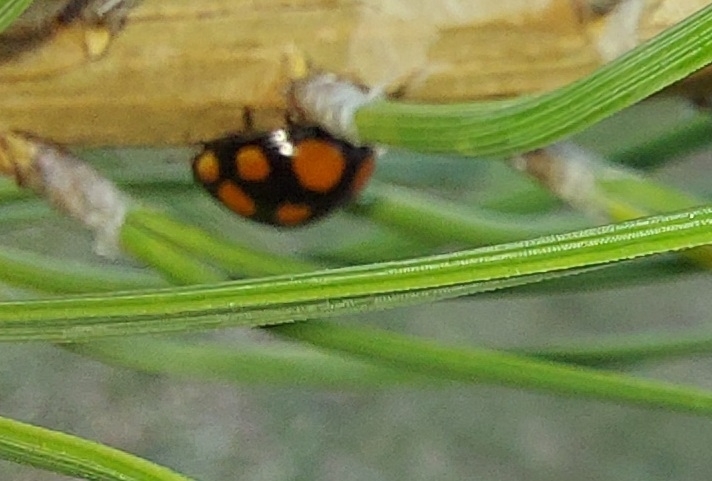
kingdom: Animalia
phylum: Arthropoda
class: Insecta
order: Coleoptera
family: Coccinellidae
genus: Harmonia
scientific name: Harmonia axyridis
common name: Harlequin ladybird
